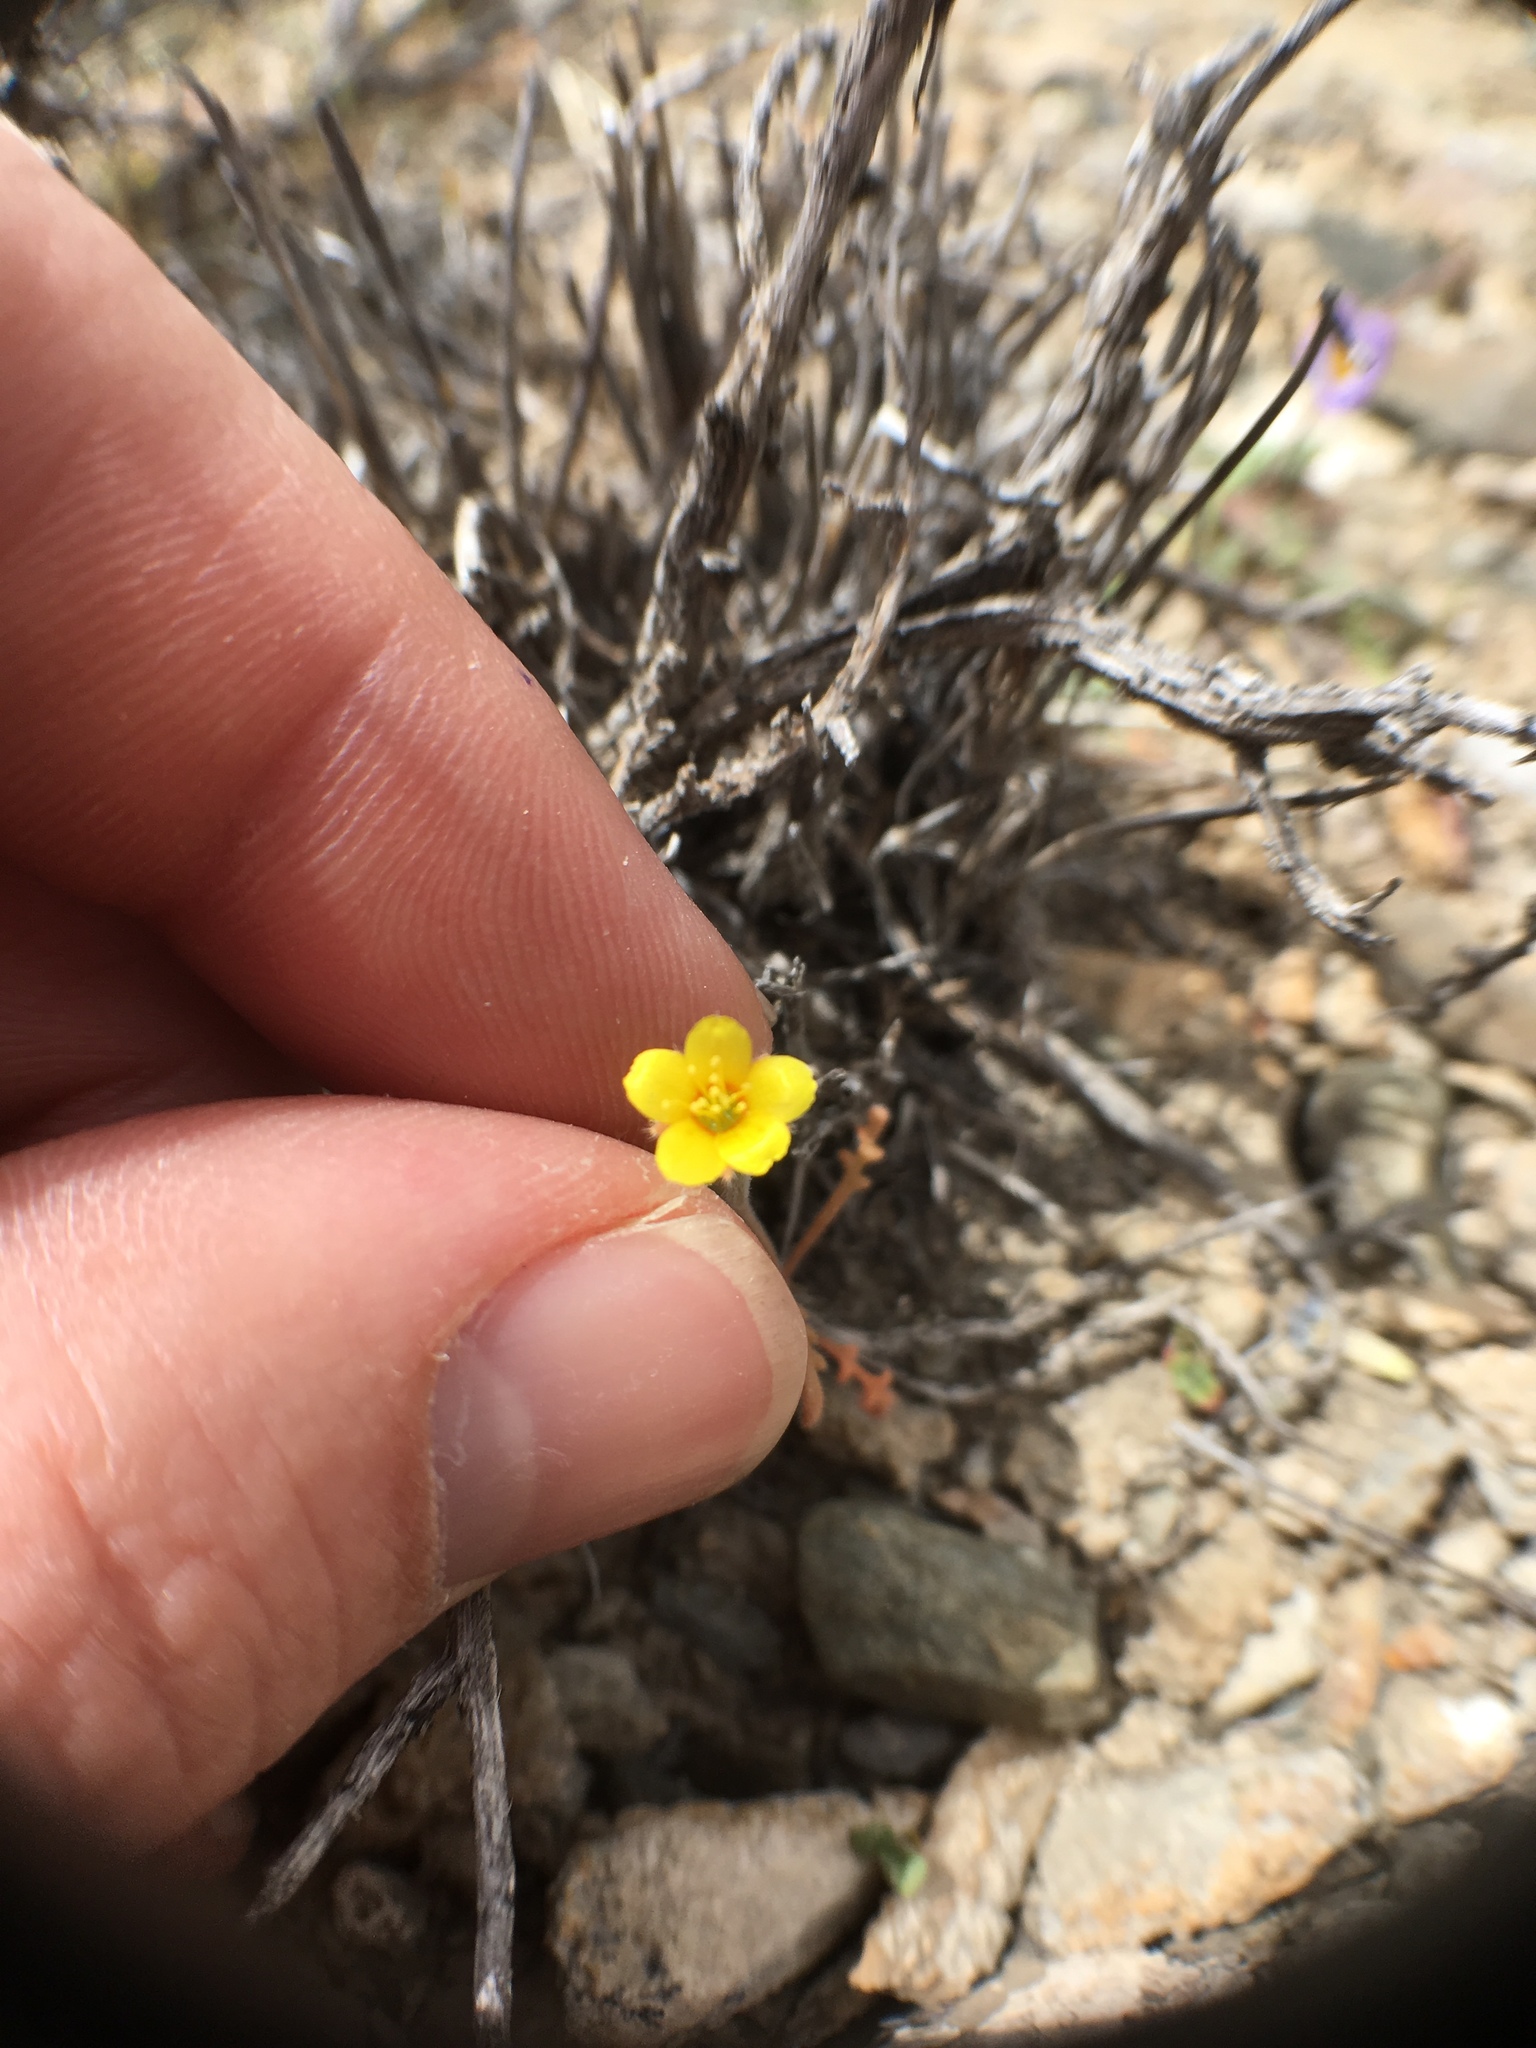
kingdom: Plantae
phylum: Tracheophyta
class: Magnoliopsida
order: Cornales
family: Loasaceae
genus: Mentzelia
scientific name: Mentzelia albicaulis
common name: White-stem blazingstar
